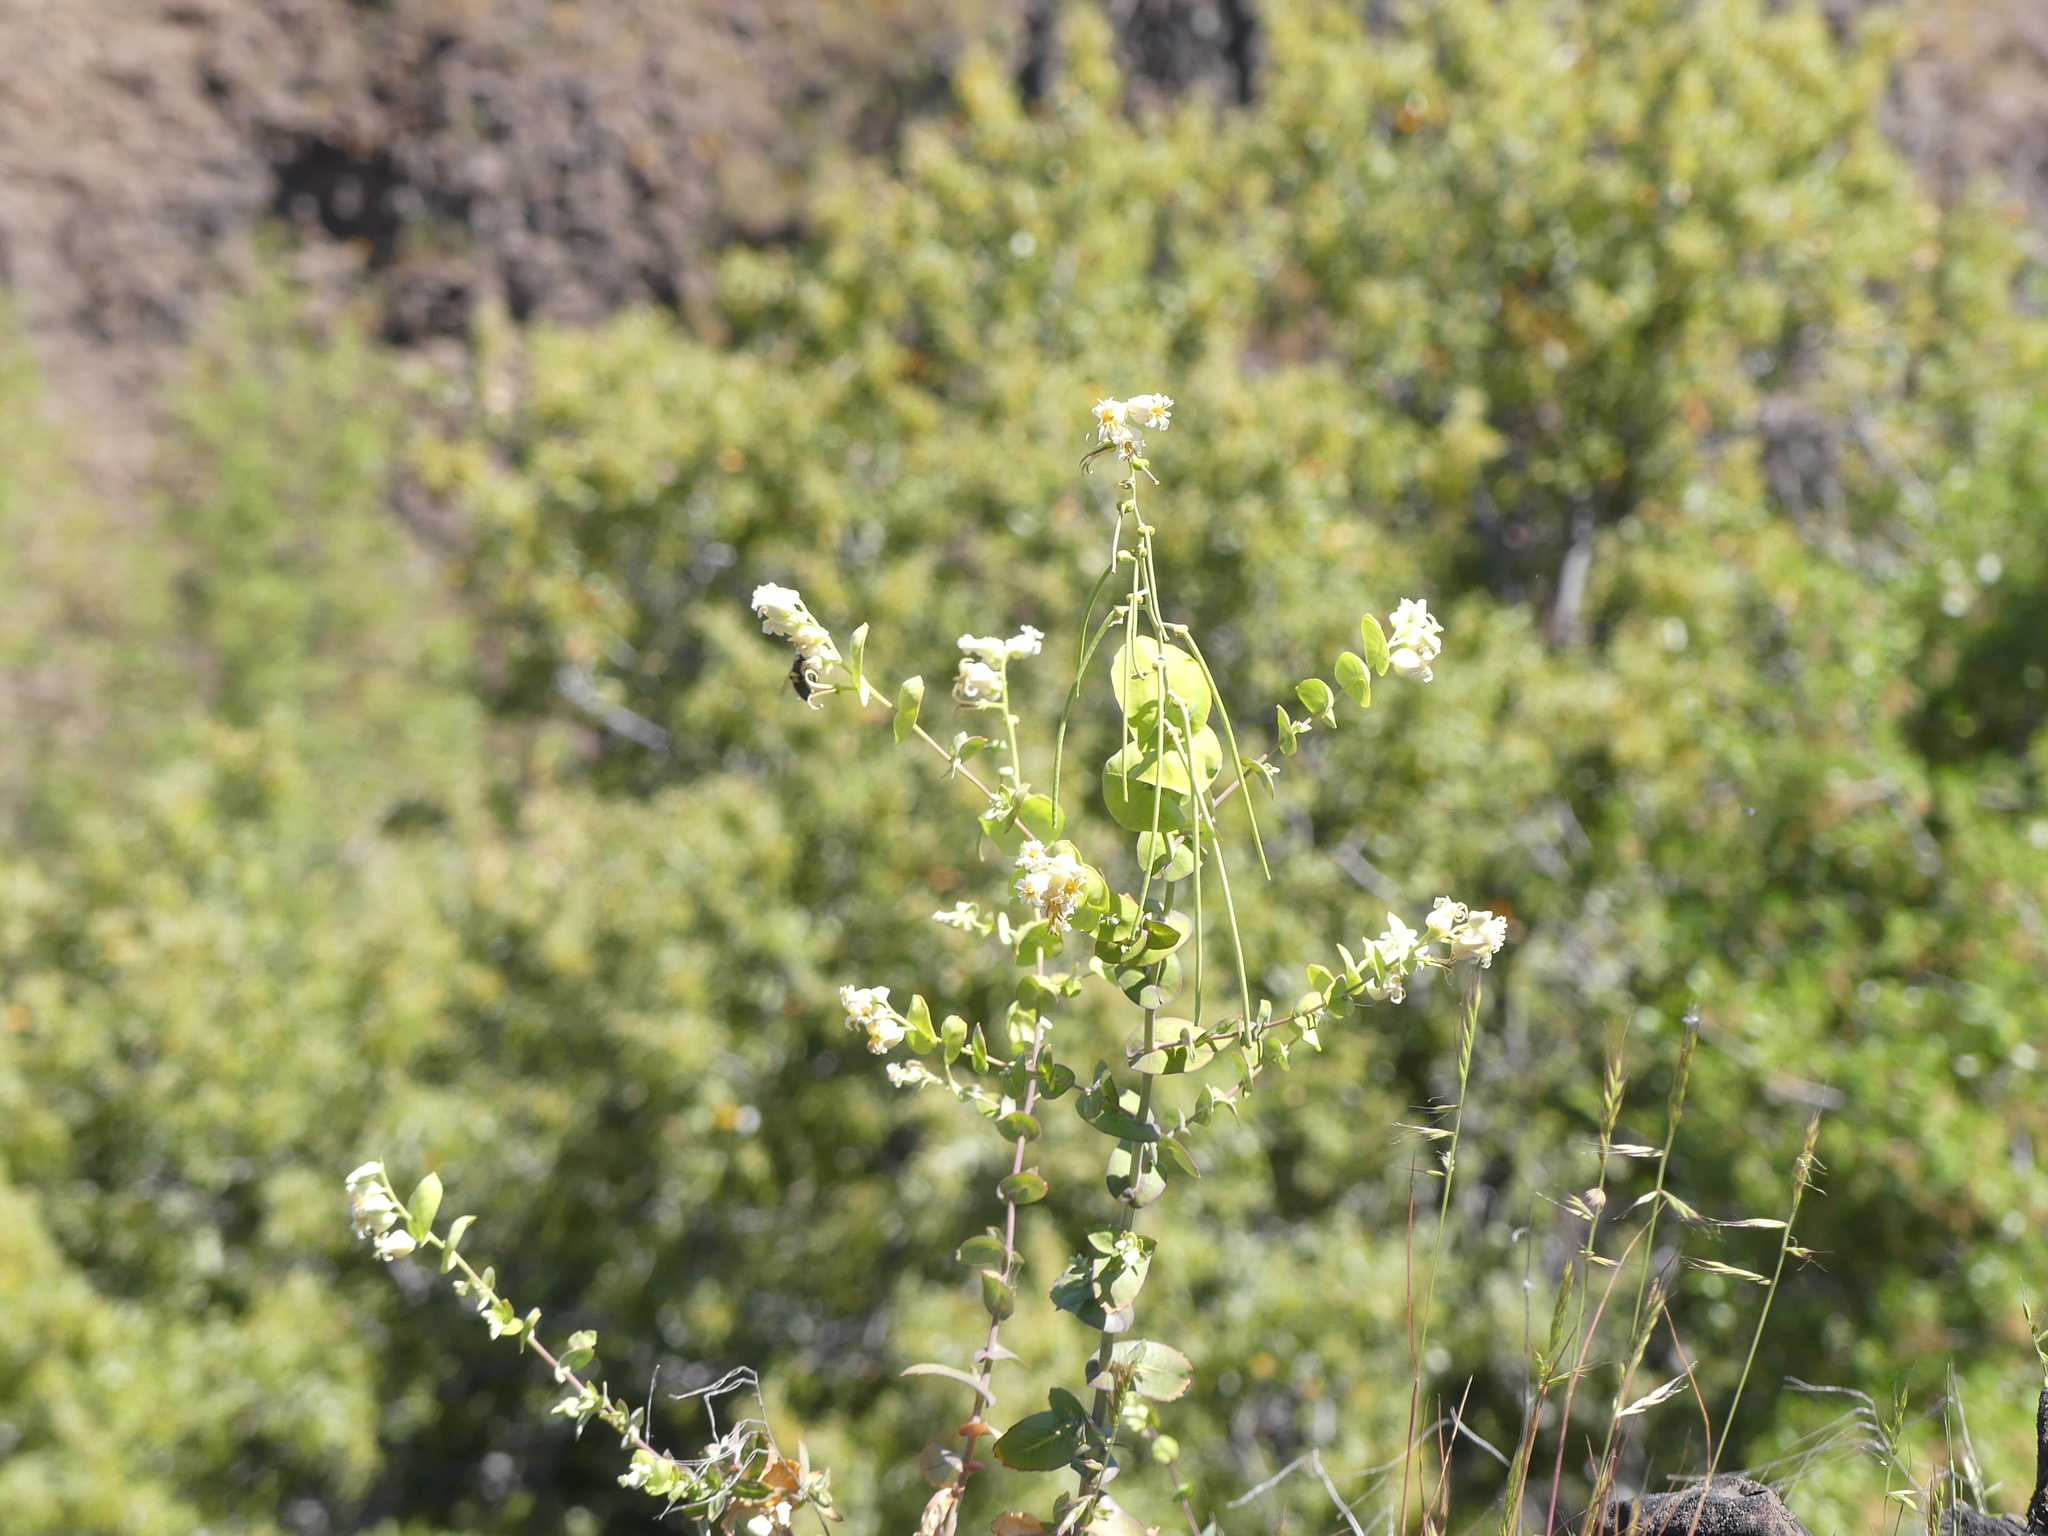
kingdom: Plantae
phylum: Tracheophyta
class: Magnoliopsida
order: Brassicales
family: Brassicaceae
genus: Streptanthus
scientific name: Streptanthus tortuosus
